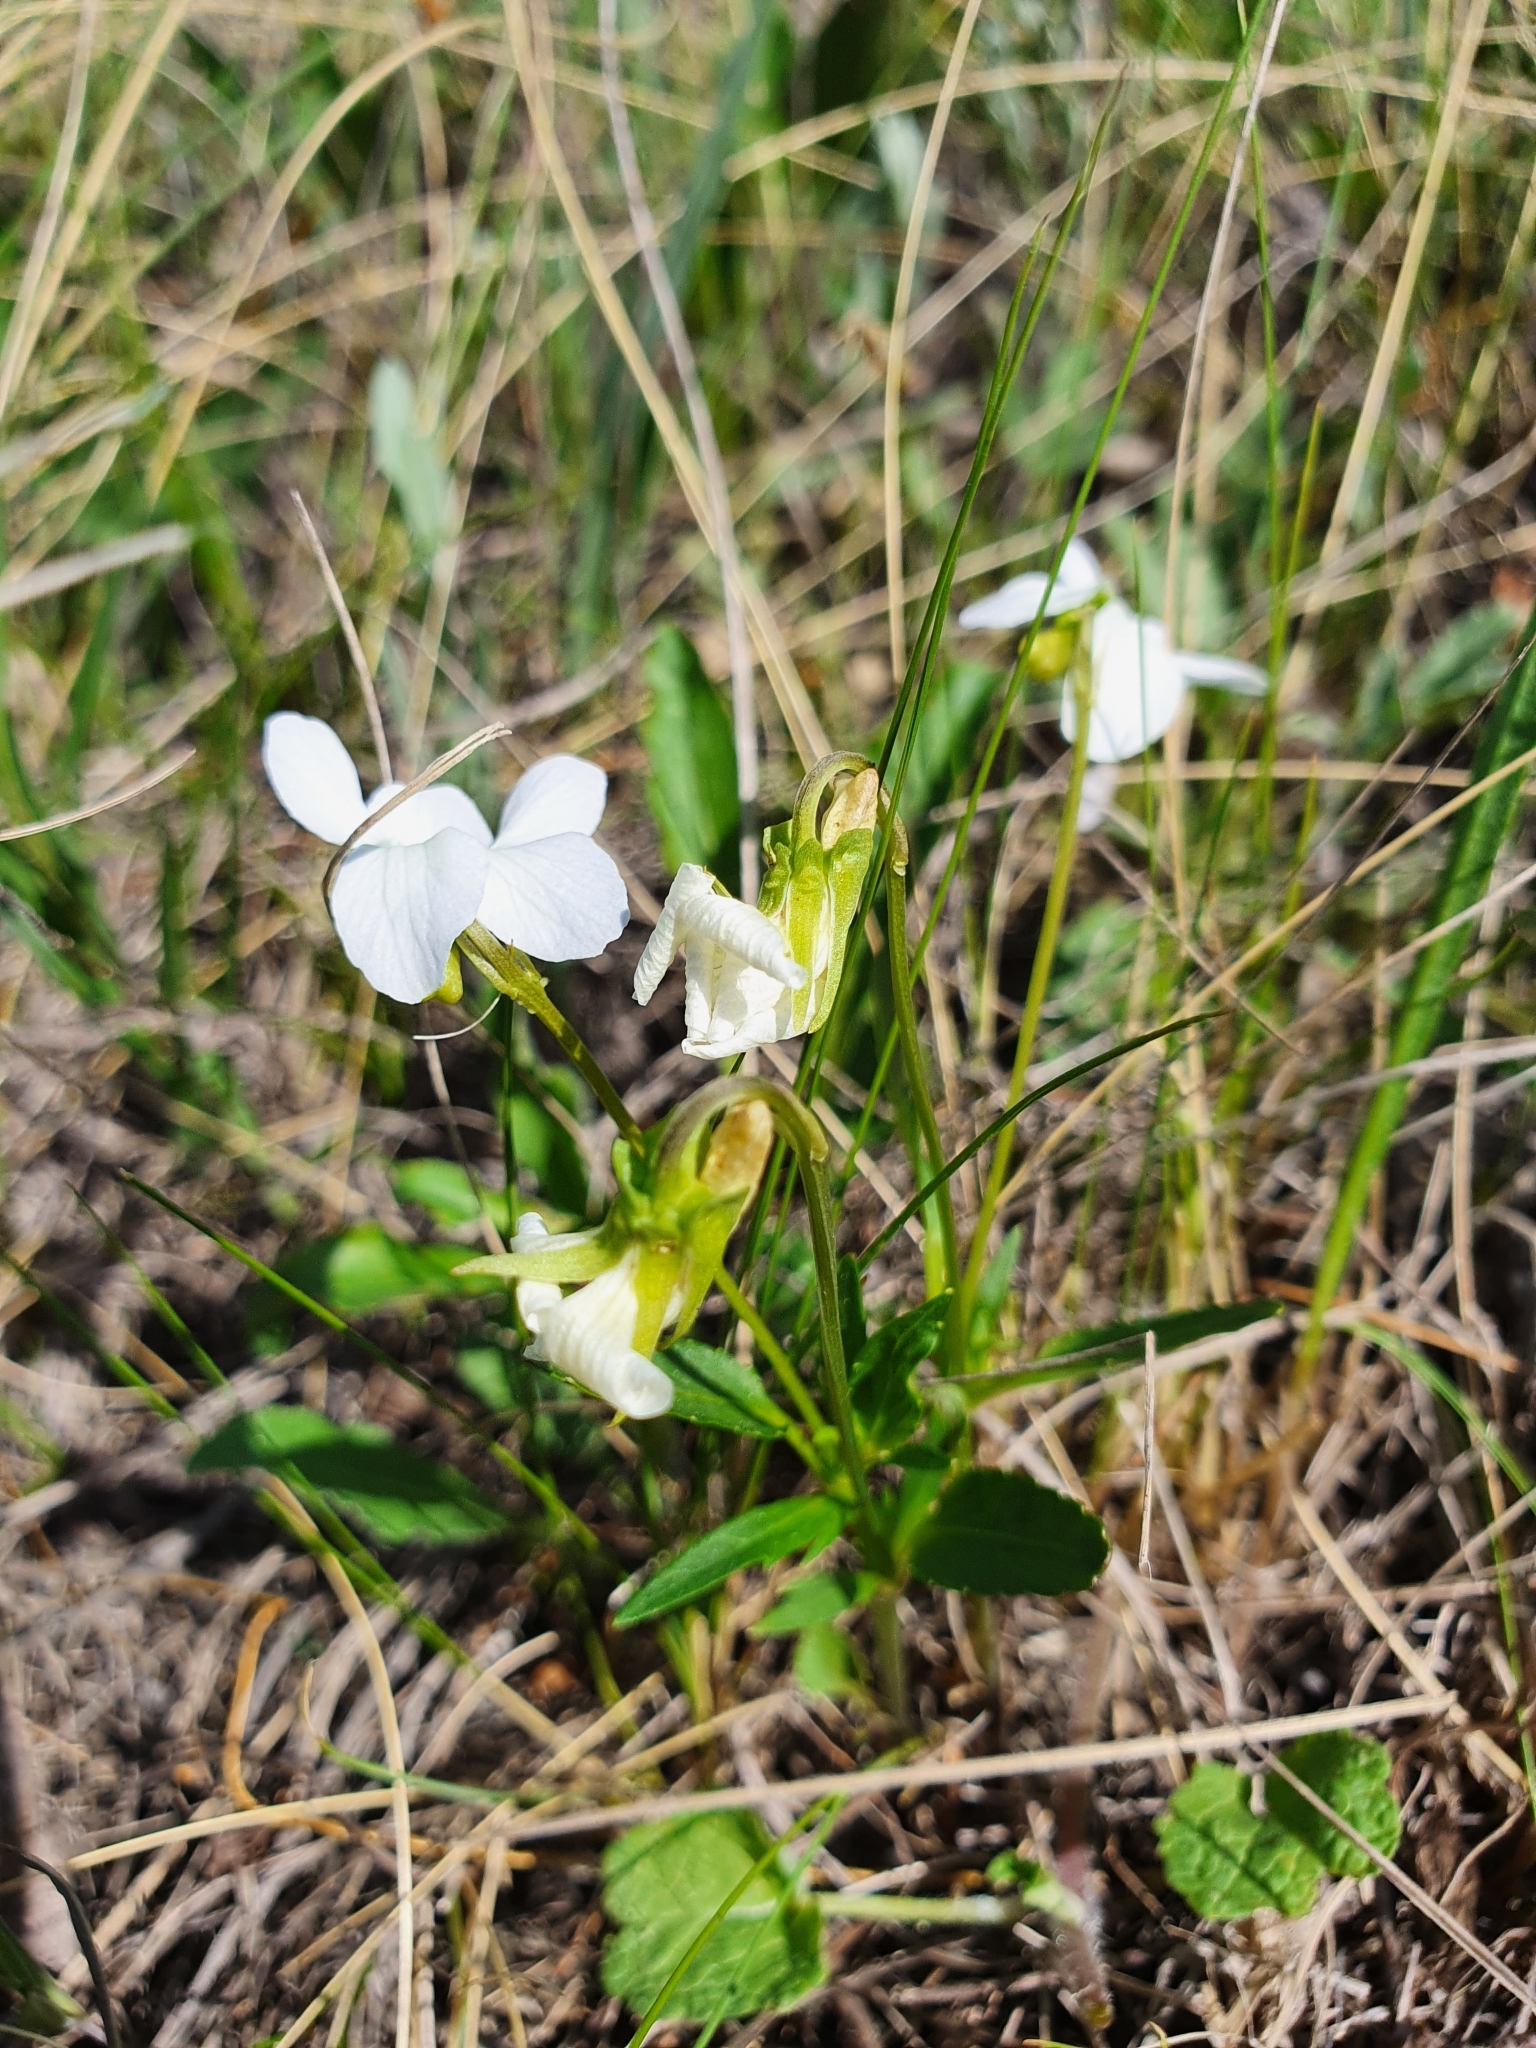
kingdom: Plantae
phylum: Tracheophyta
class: Magnoliopsida
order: Malpighiales
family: Violaceae
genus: Viola
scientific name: Viola pumila
